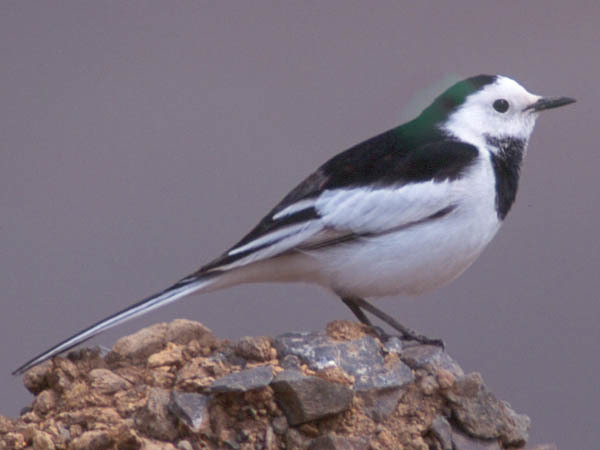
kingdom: Animalia
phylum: Chordata
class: Aves
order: Passeriformes
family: Motacillidae
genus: Motacilla
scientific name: Motacilla alba
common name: White wagtail
